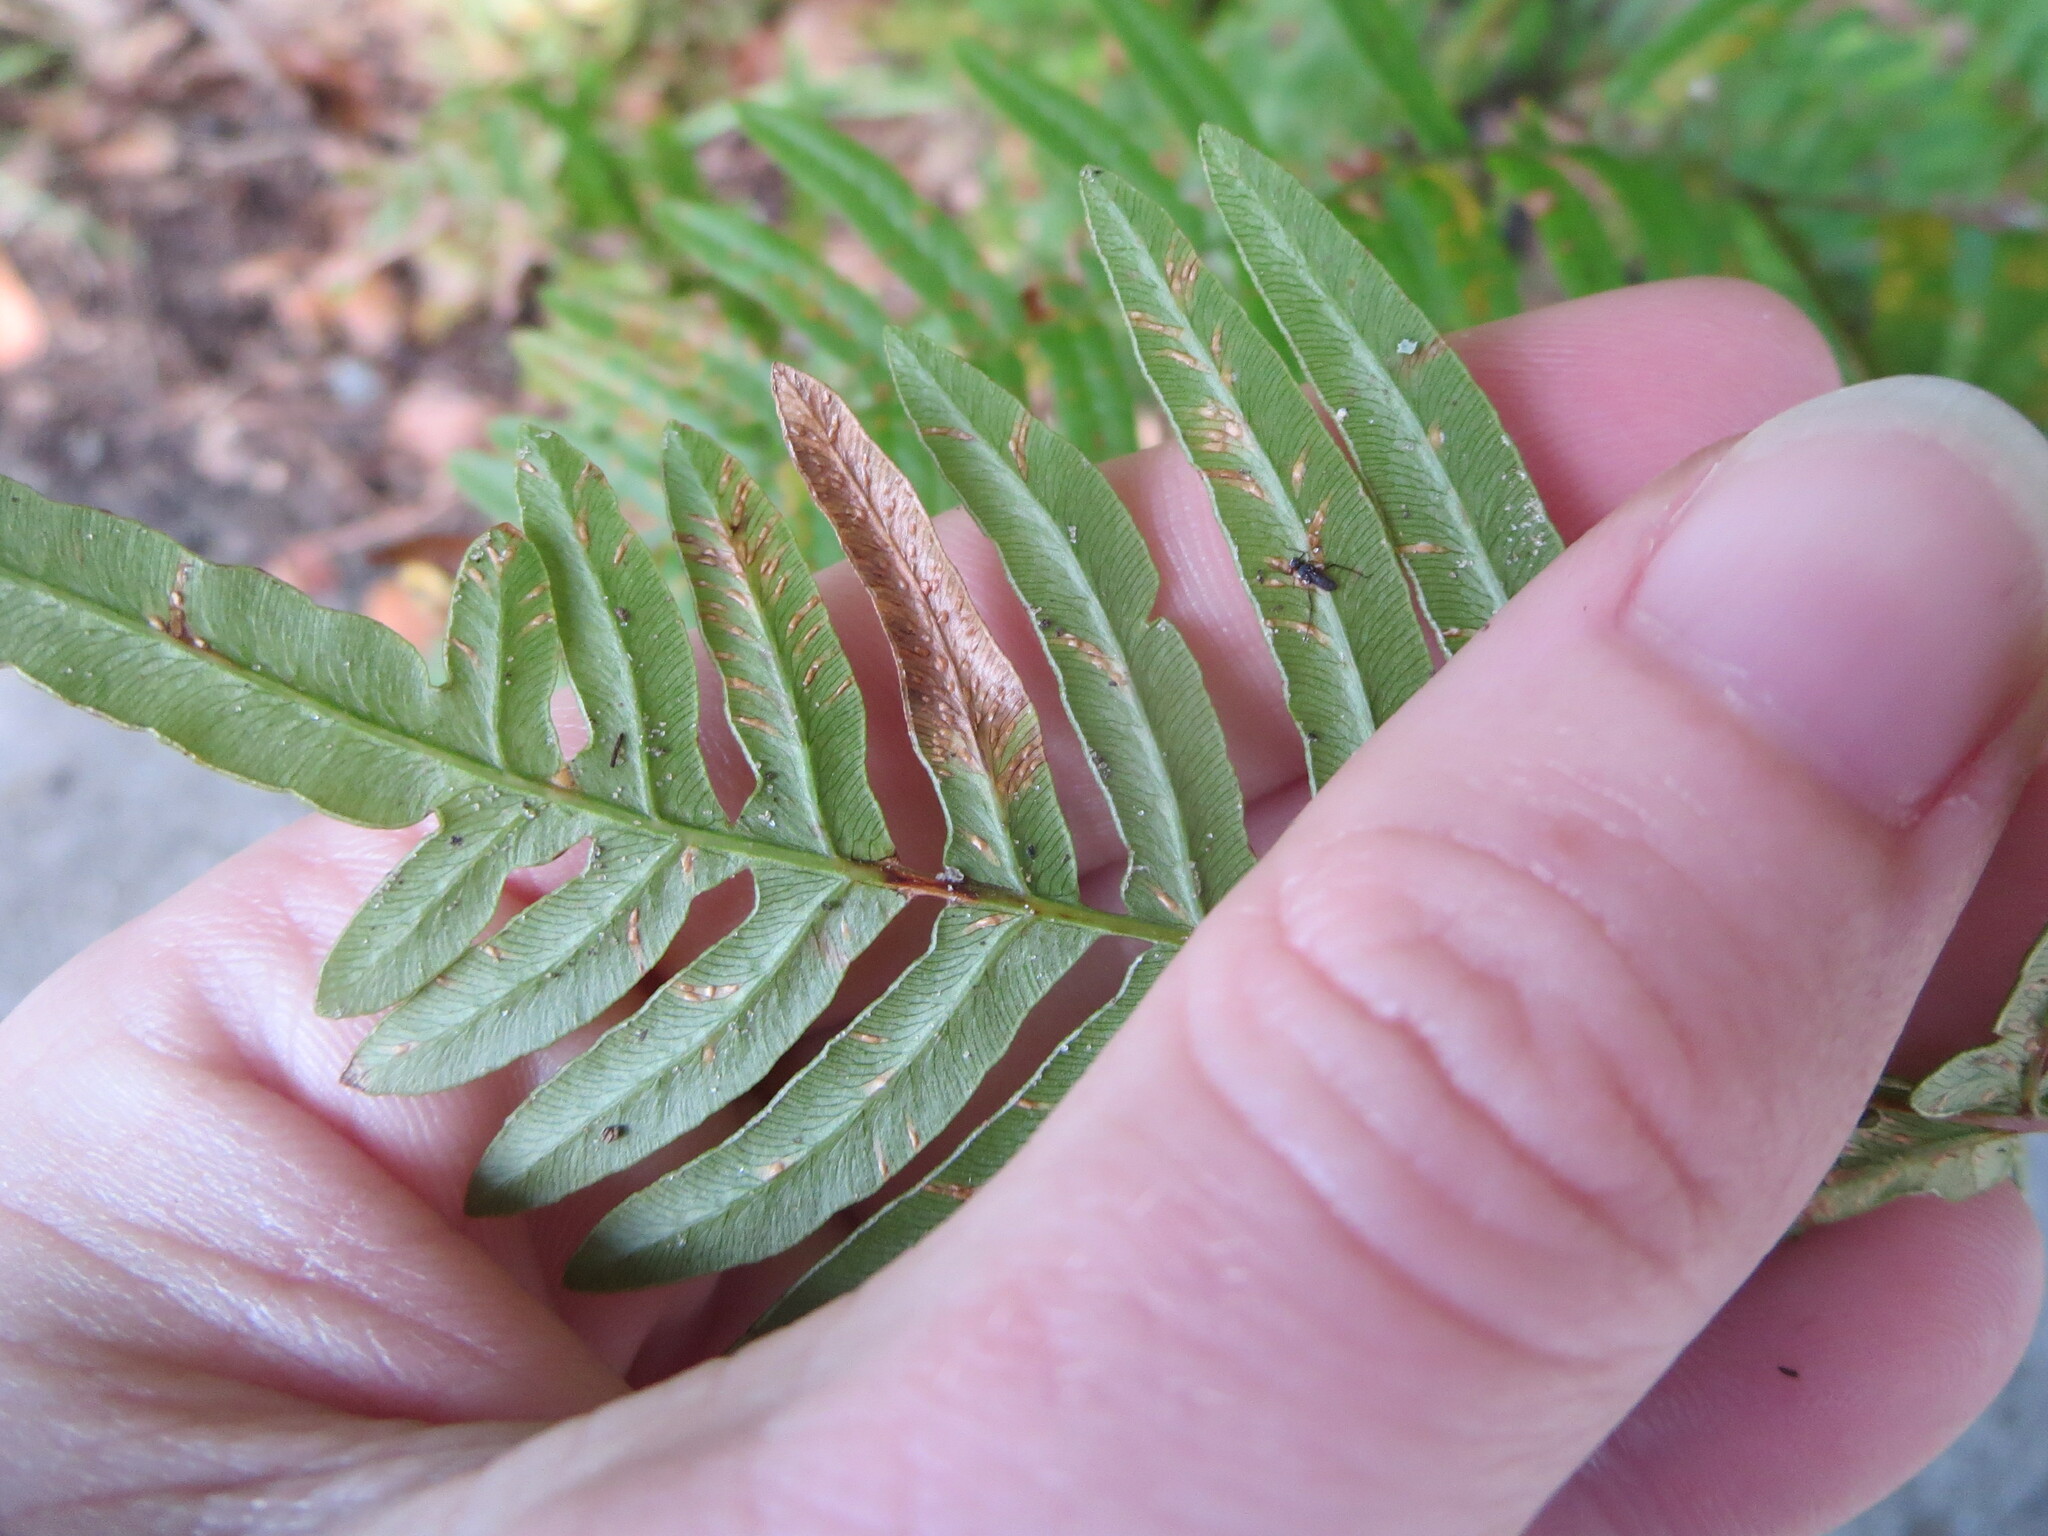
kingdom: Plantae
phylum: Tracheophyta
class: Polypodiopsida
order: Polypodiales
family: Dennstaedtiaceae
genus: Pteridium
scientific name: Pteridium
